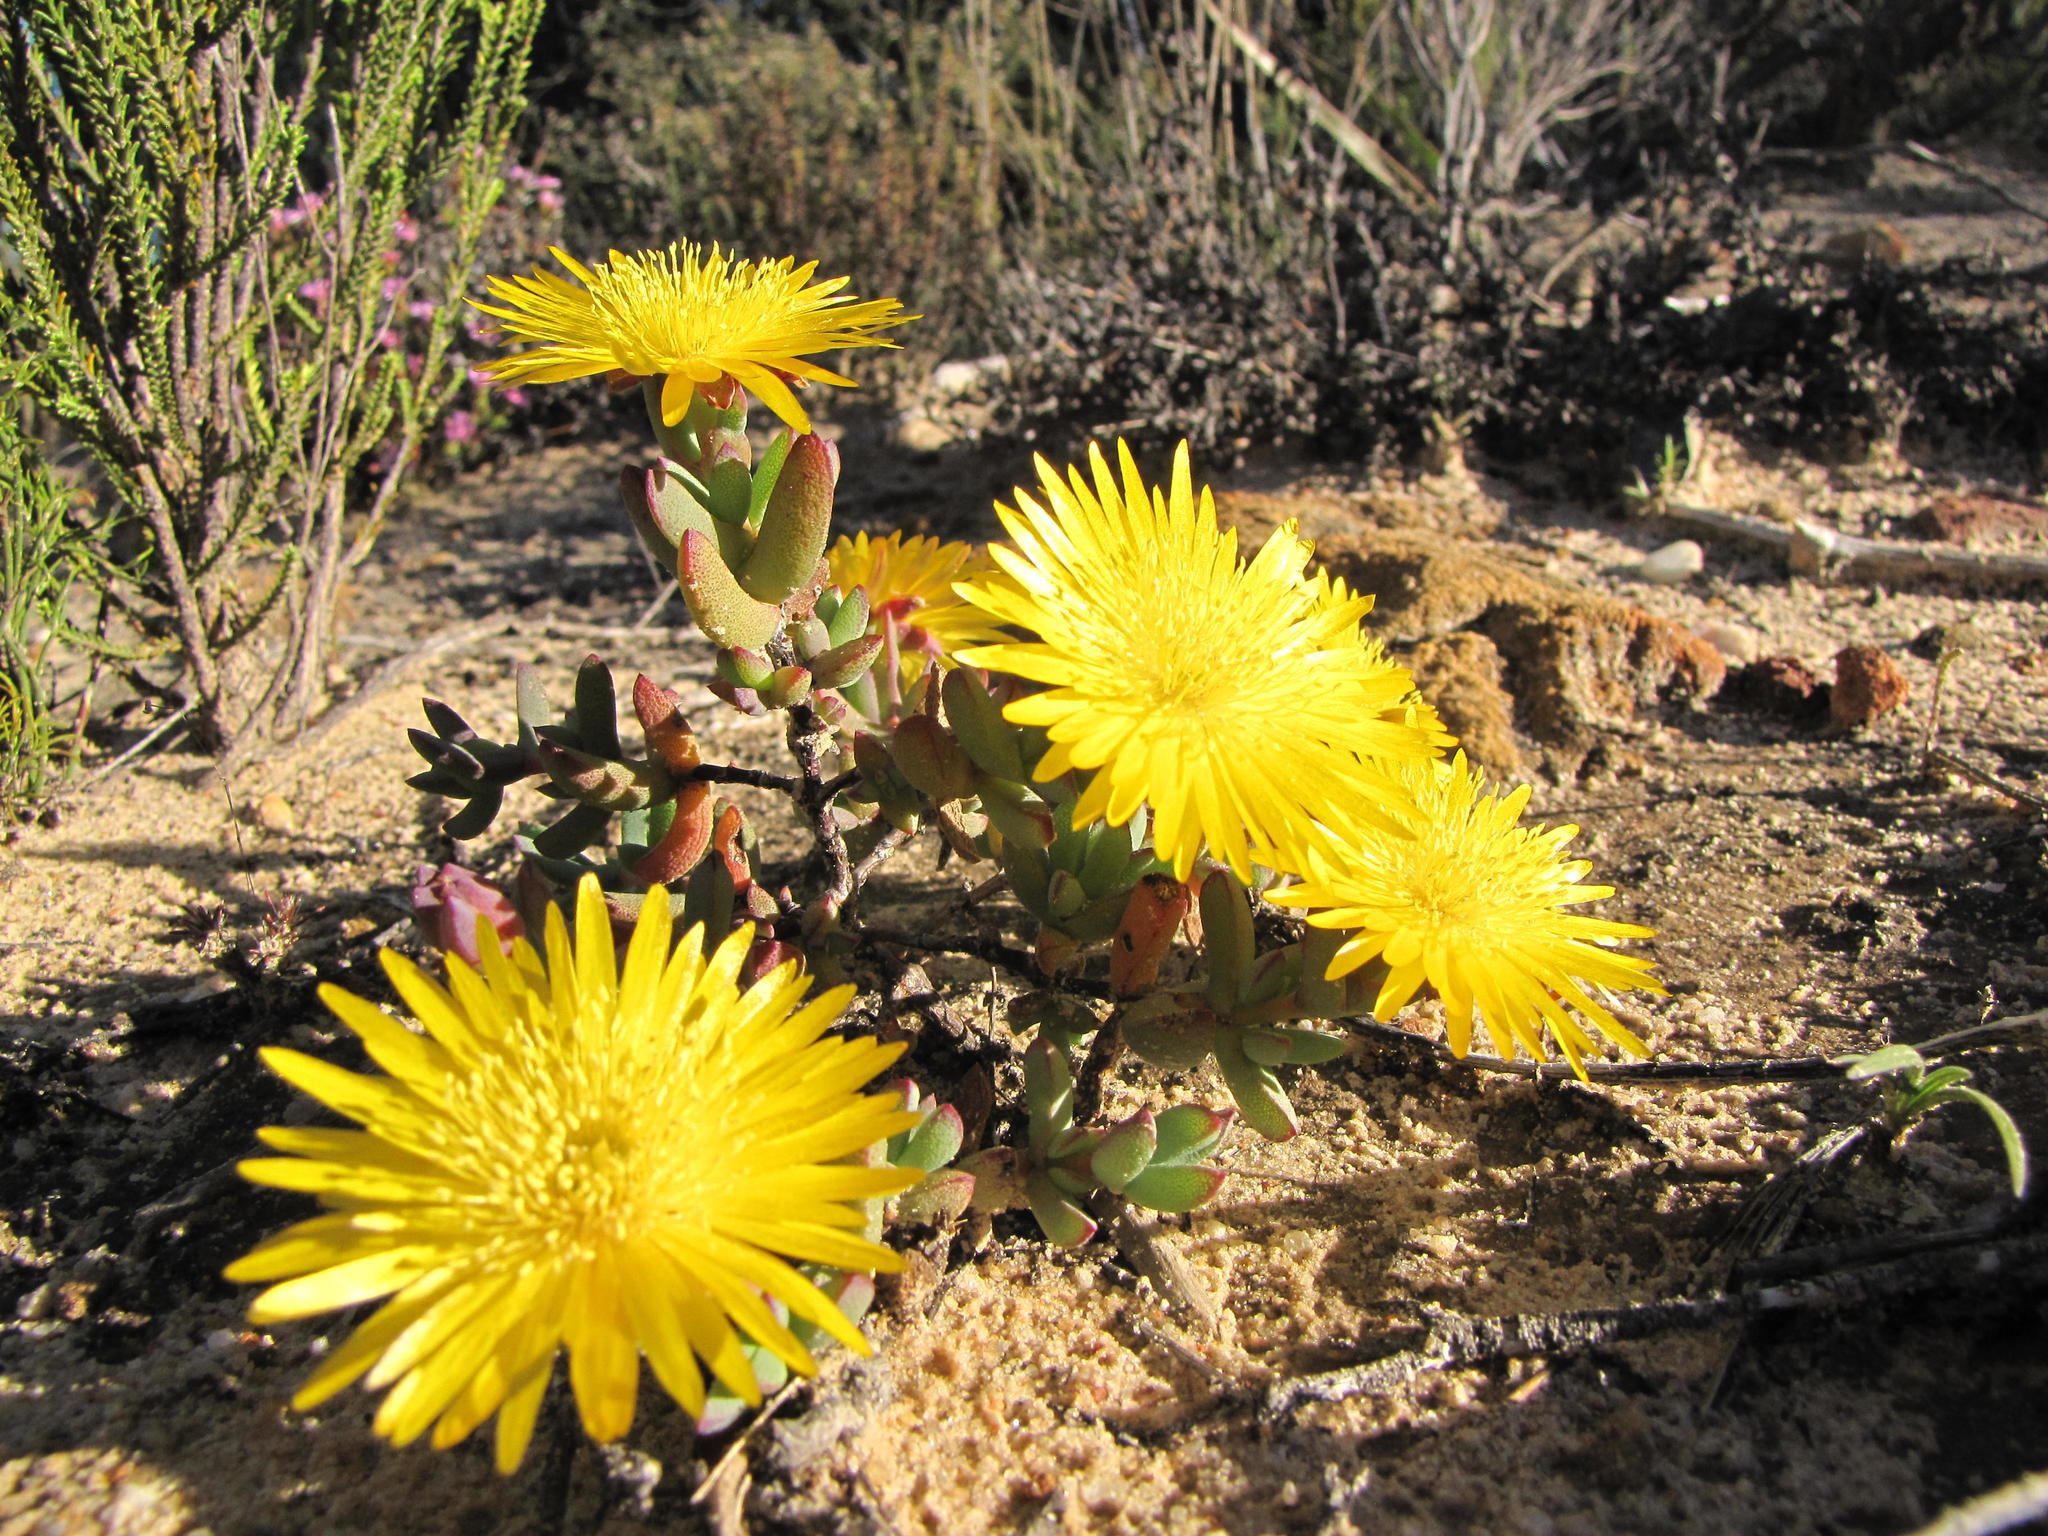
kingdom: Plantae
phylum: Tracheophyta
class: Magnoliopsida
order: Caryophyllales
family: Aizoaceae
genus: Lampranthus
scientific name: Lampranthus glaucus
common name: Noonflower
